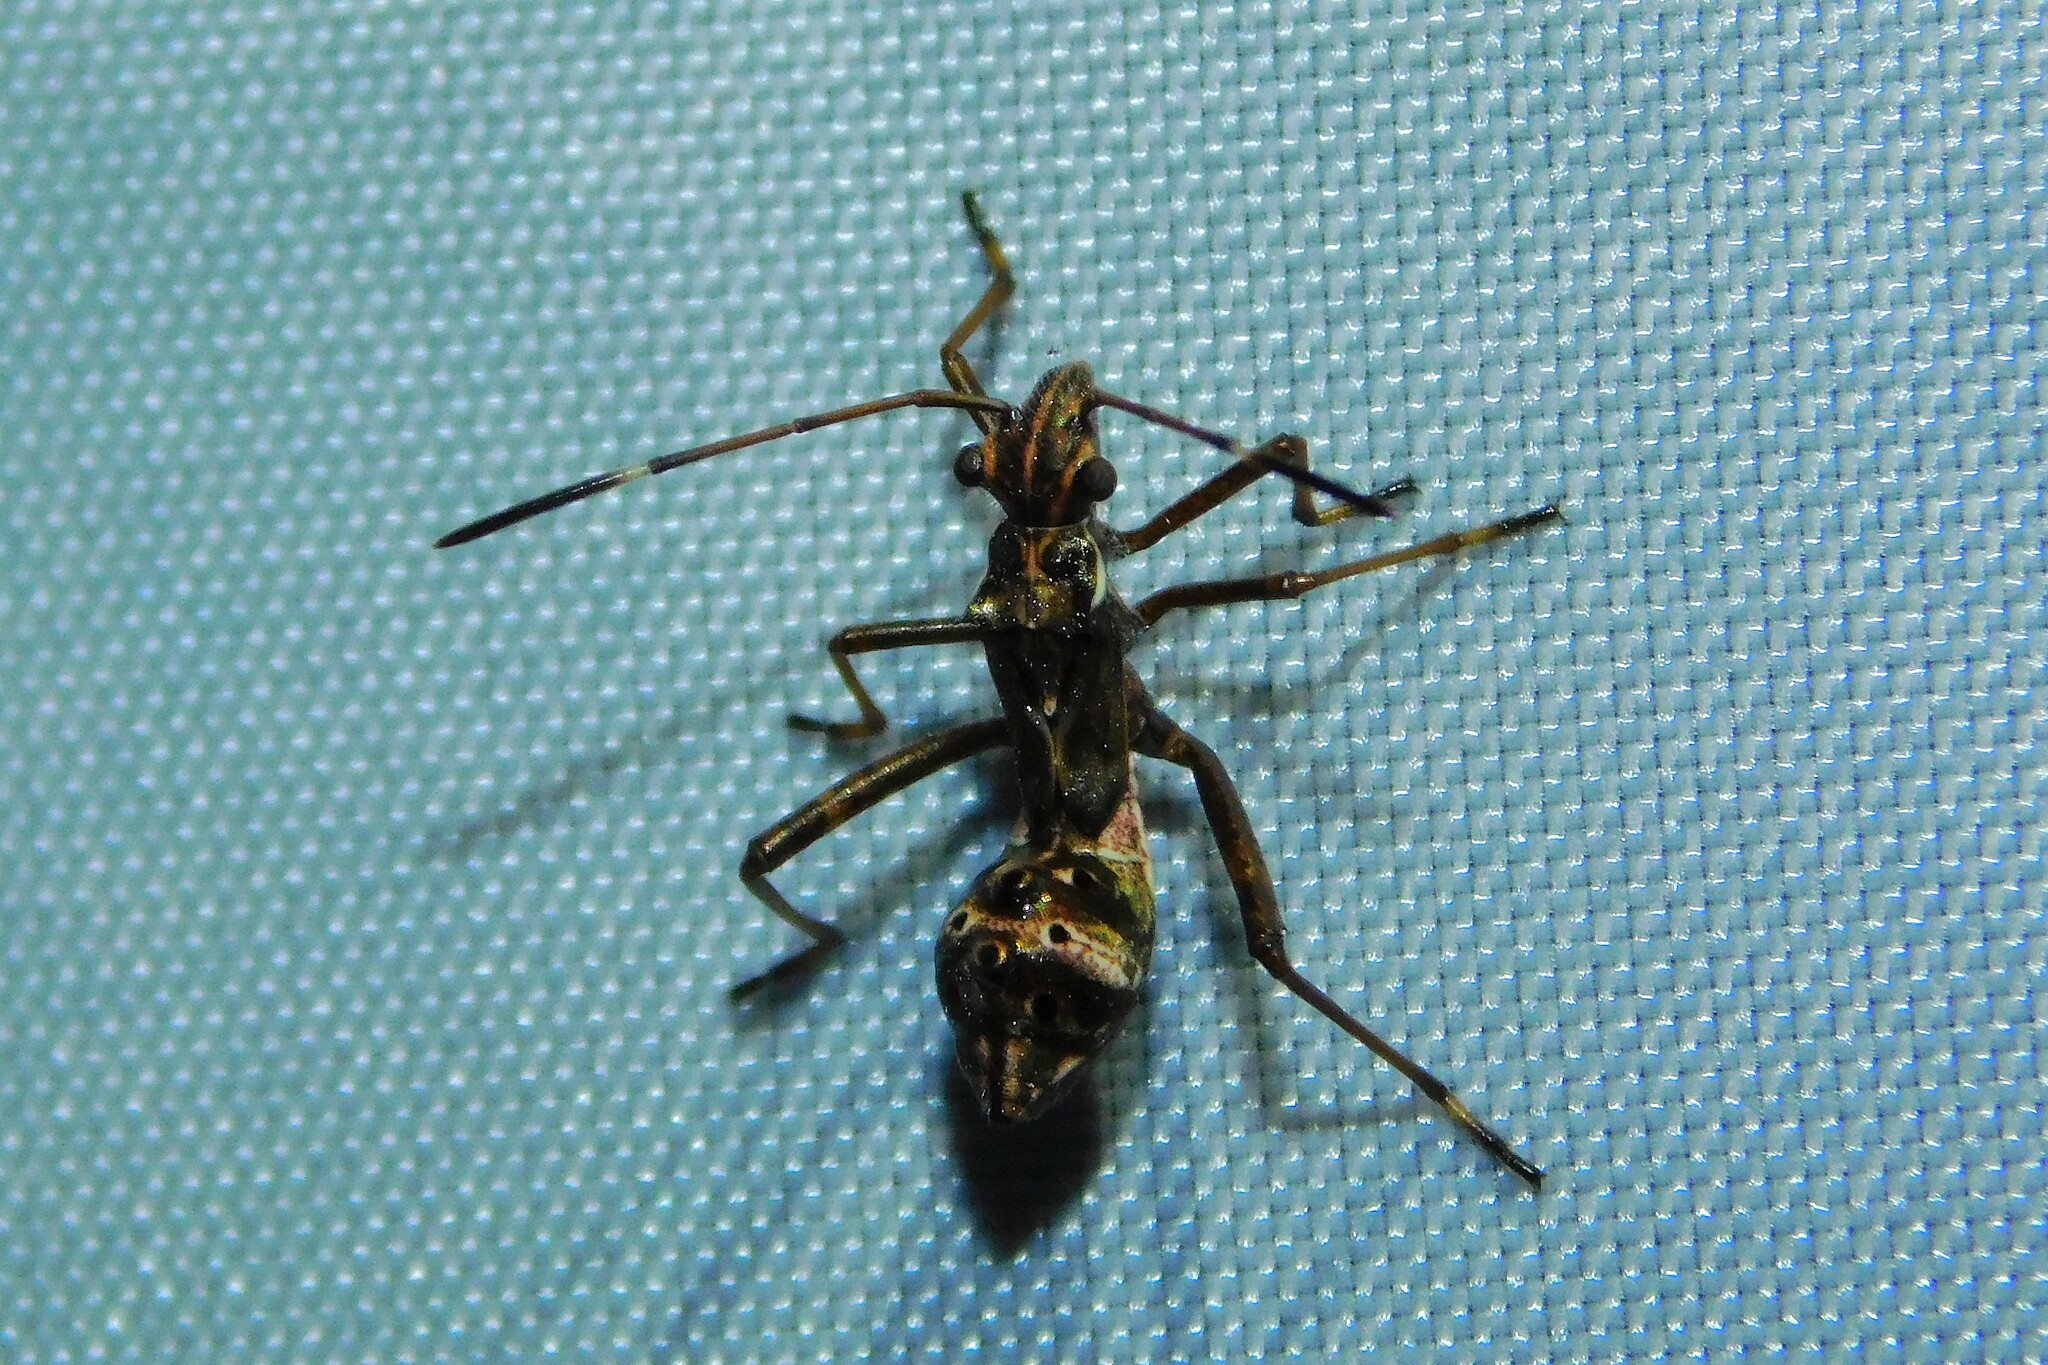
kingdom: Animalia
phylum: Arthropoda
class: Insecta
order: Hemiptera
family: Alydidae
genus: Camptopus
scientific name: Camptopus lateralis
